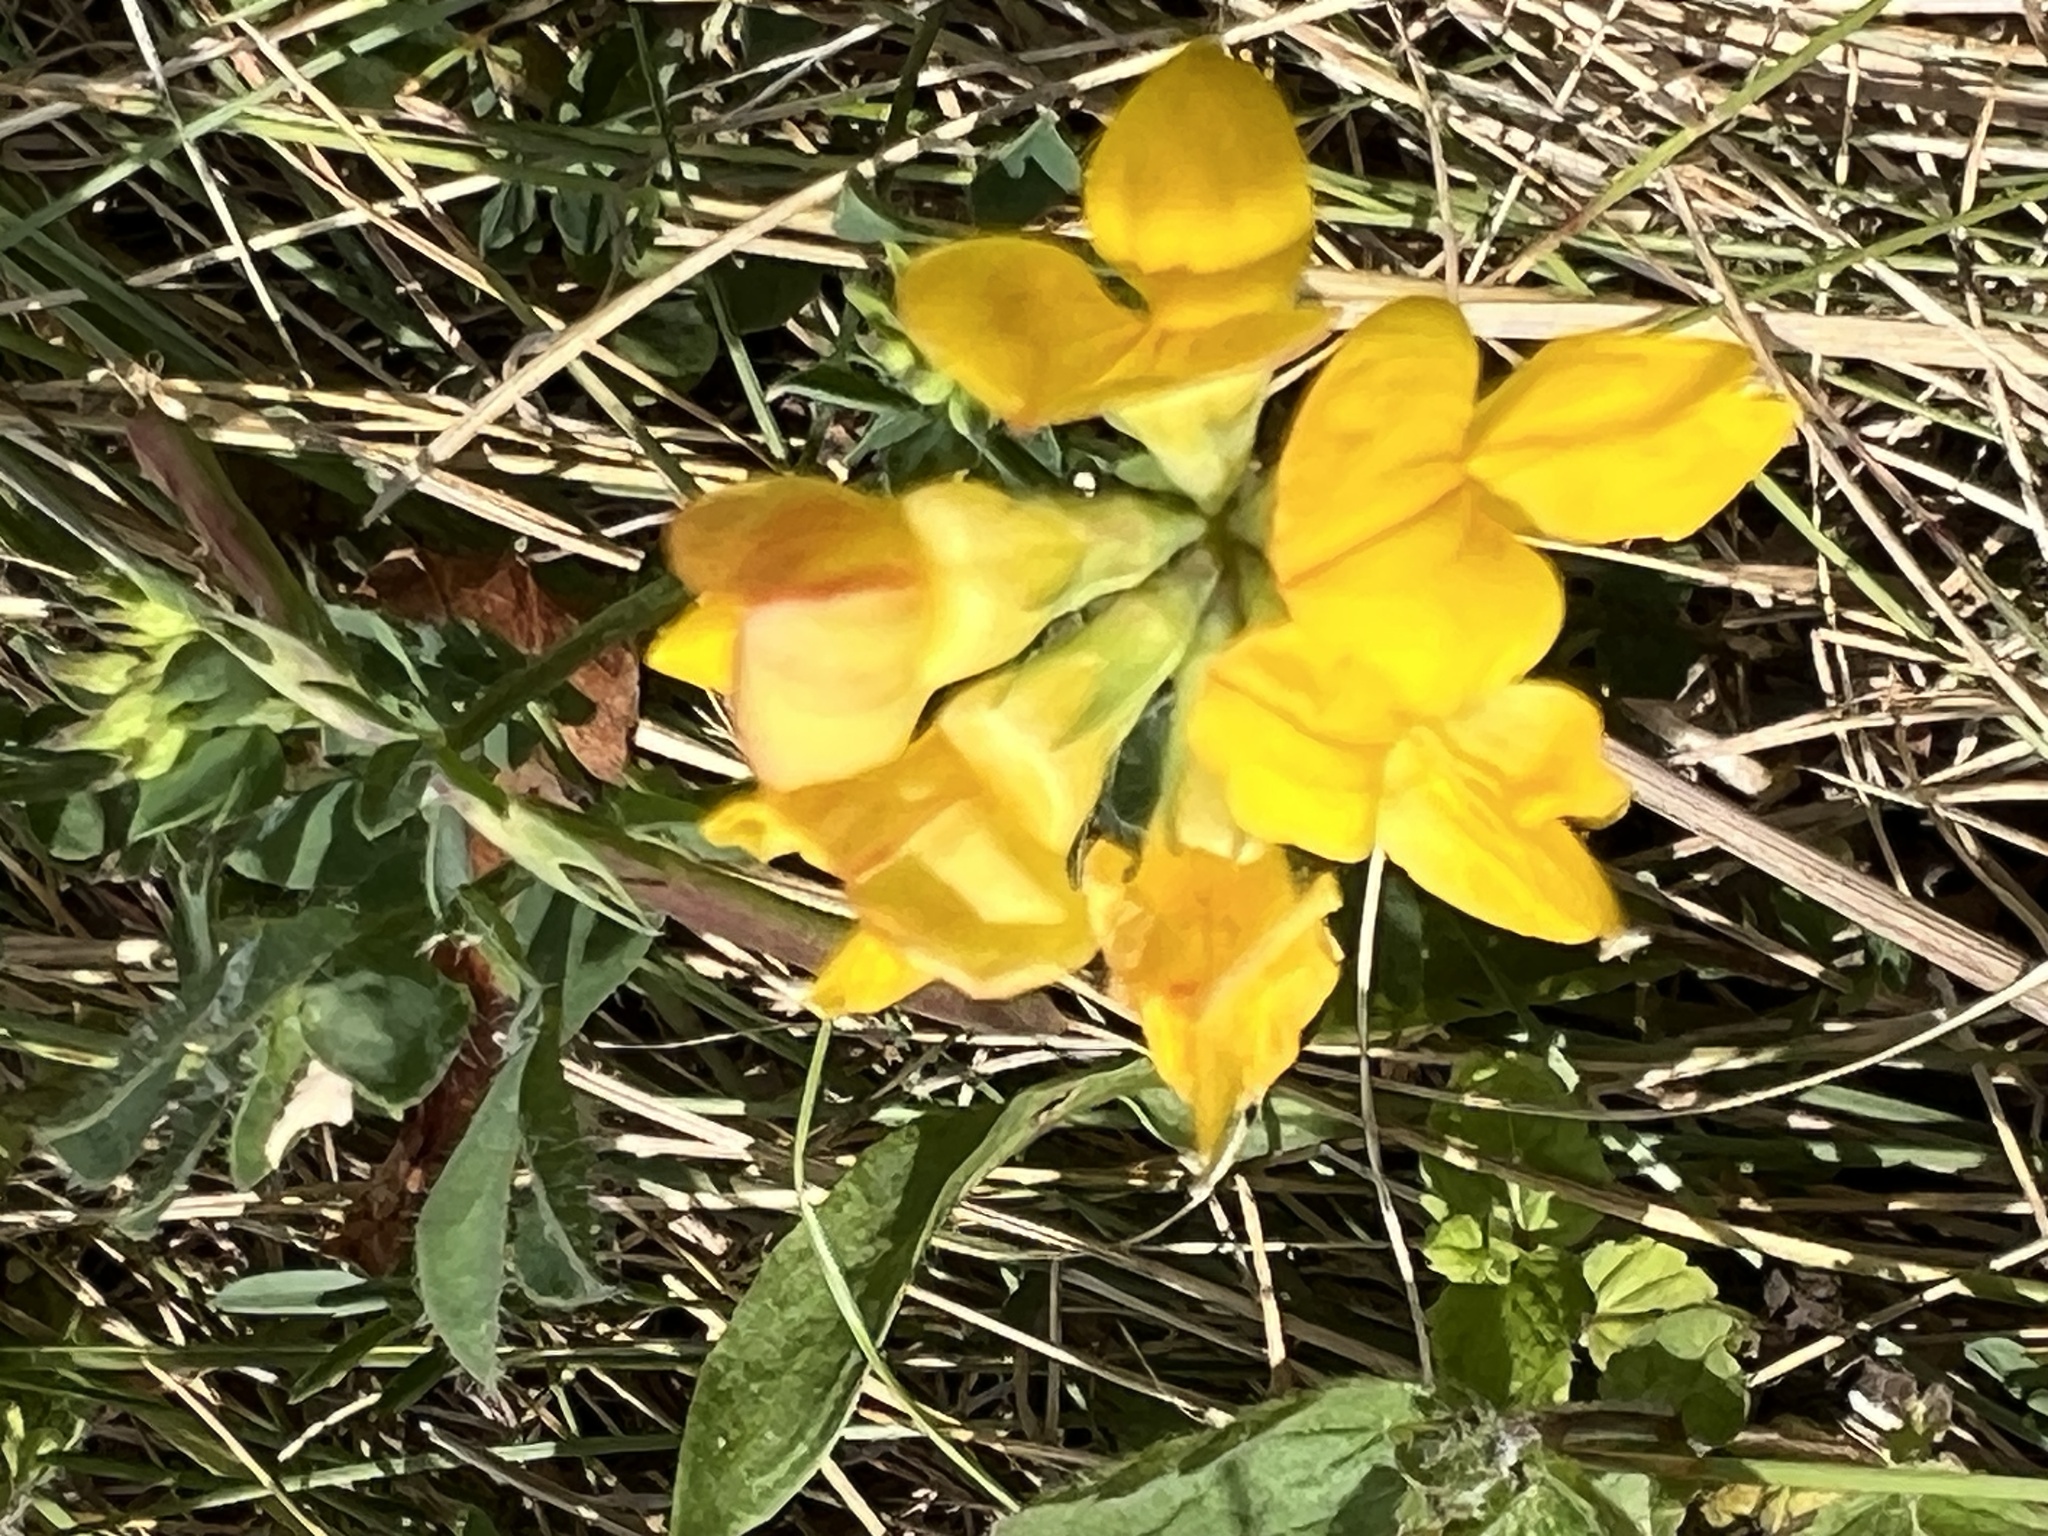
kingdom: Plantae
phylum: Tracheophyta
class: Magnoliopsida
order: Fabales
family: Fabaceae
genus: Lotus
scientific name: Lotus corniculatus
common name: Common bird's-foot-trefoil
